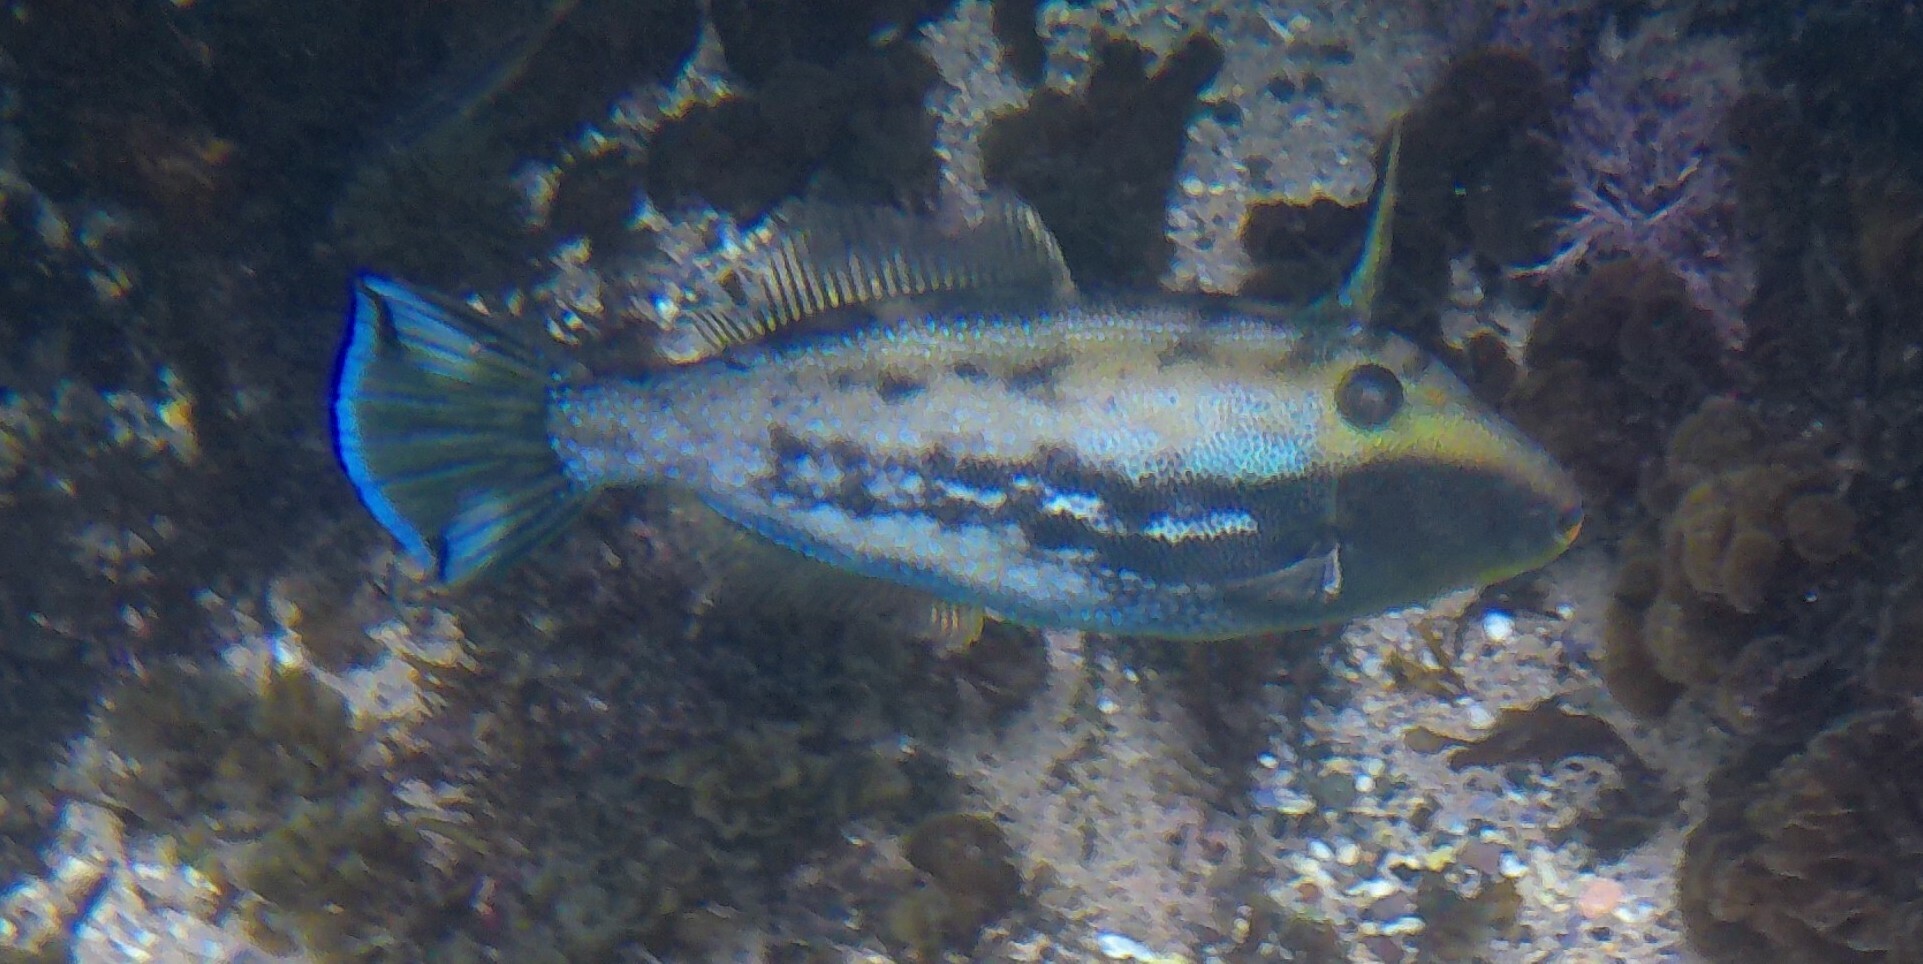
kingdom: Animalia
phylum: Chordata
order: Tetraodontiformes
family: Monacanthidae
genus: Scobinichthys
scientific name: Scobinichthys granulatus
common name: Rough leatherjacket
